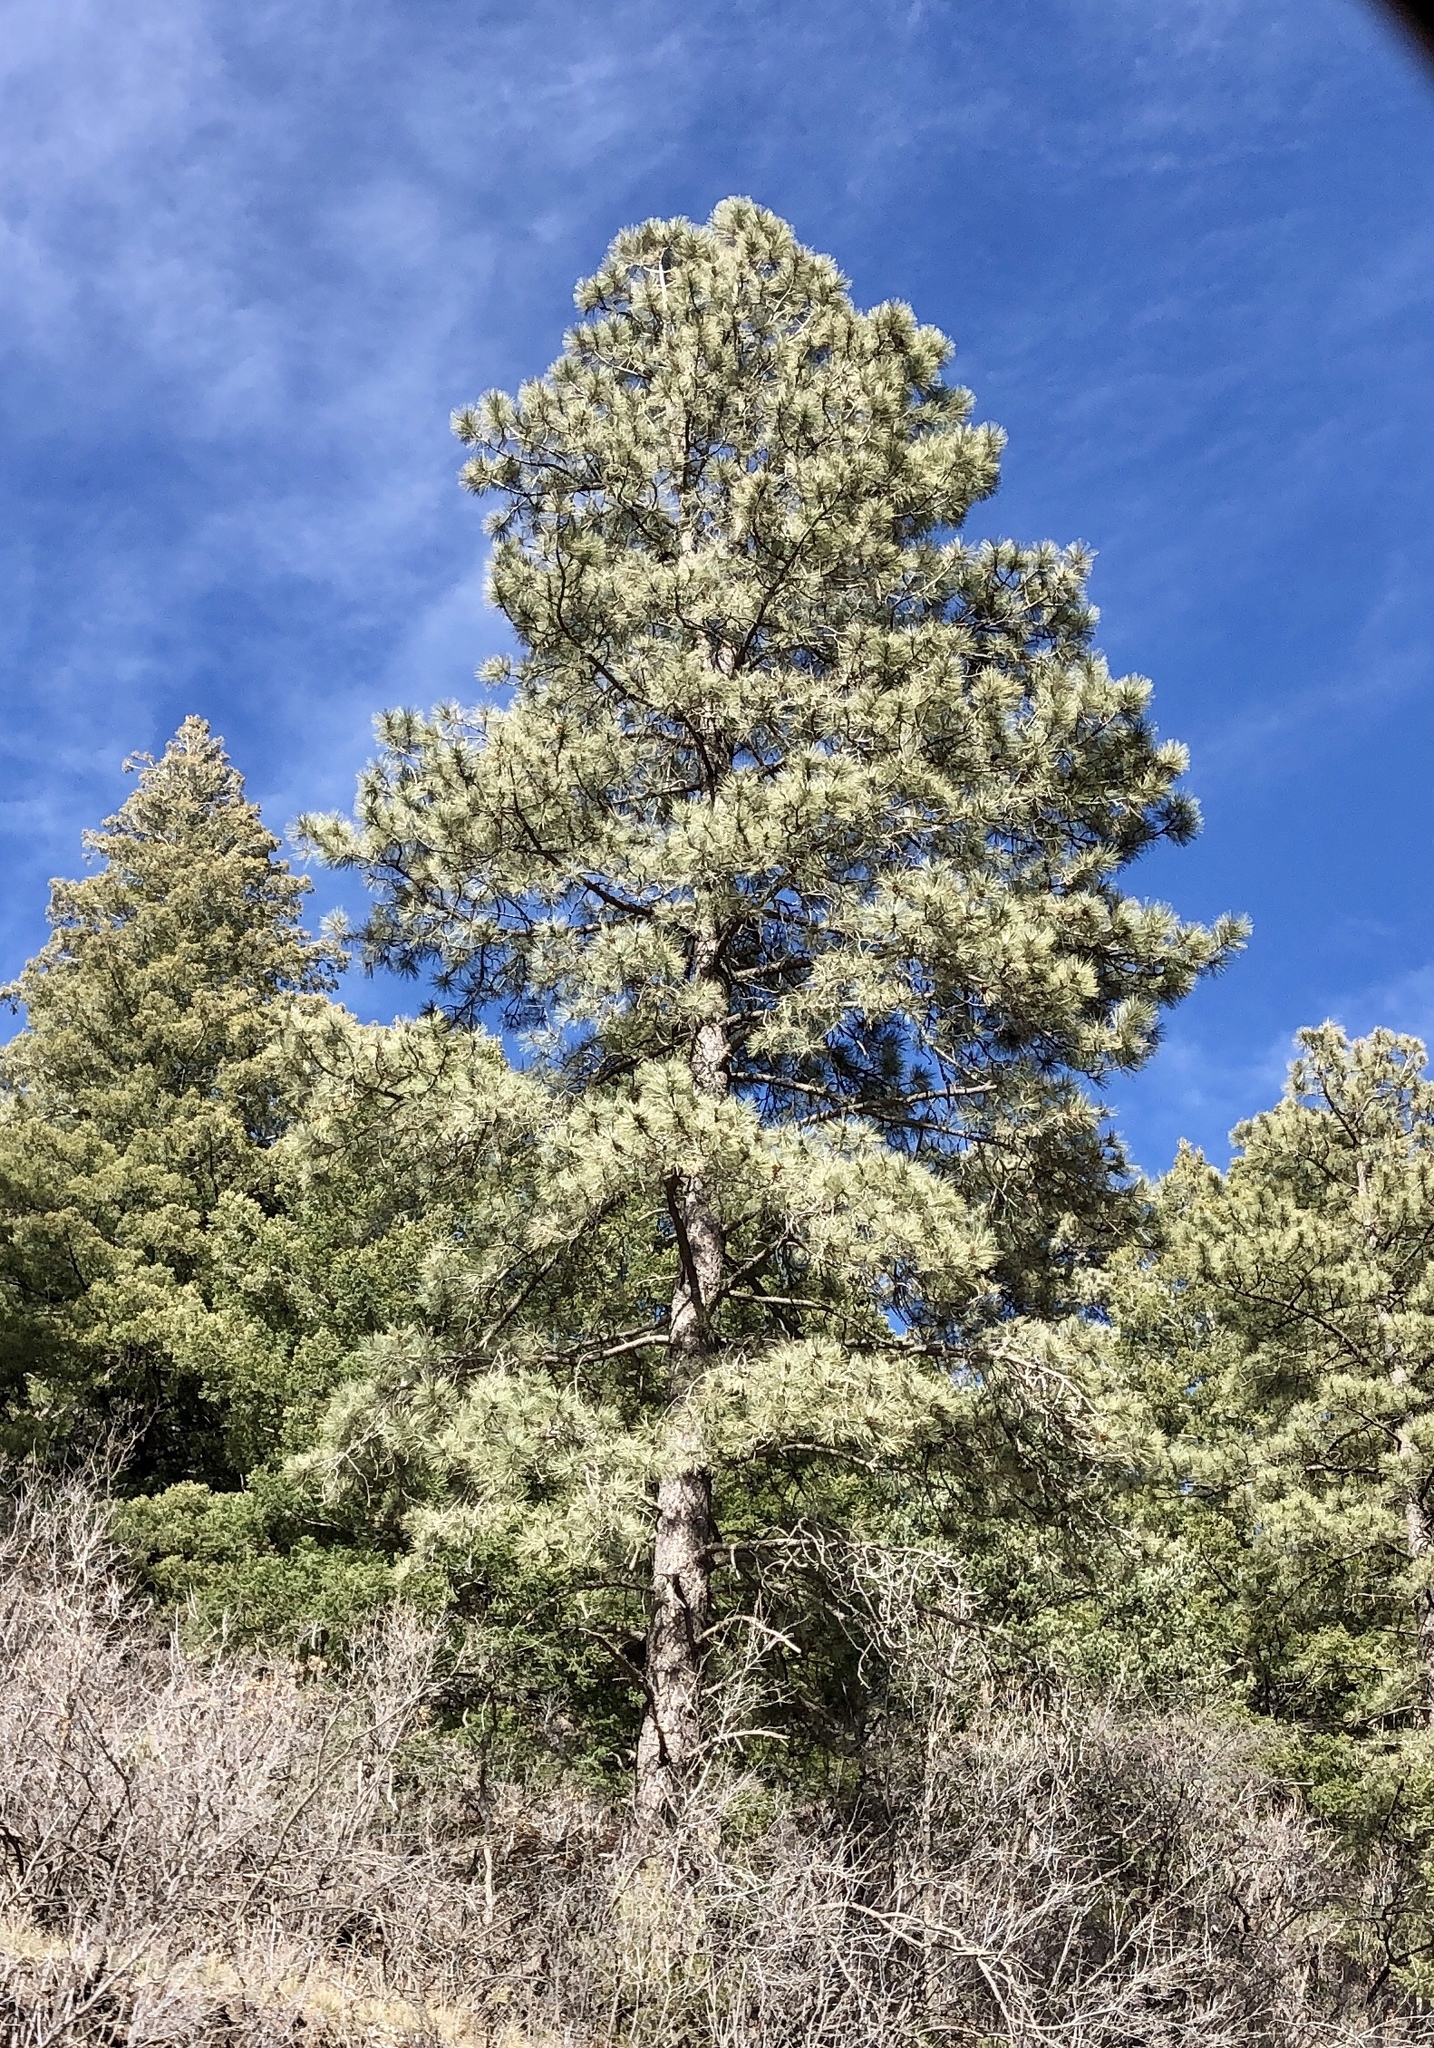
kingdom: Plantae
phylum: Tracheophyta
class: Pinopsida
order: Pinales
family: Pinaceae
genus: Pinus
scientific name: Pinus ponderosa
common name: Western yellow-pine
